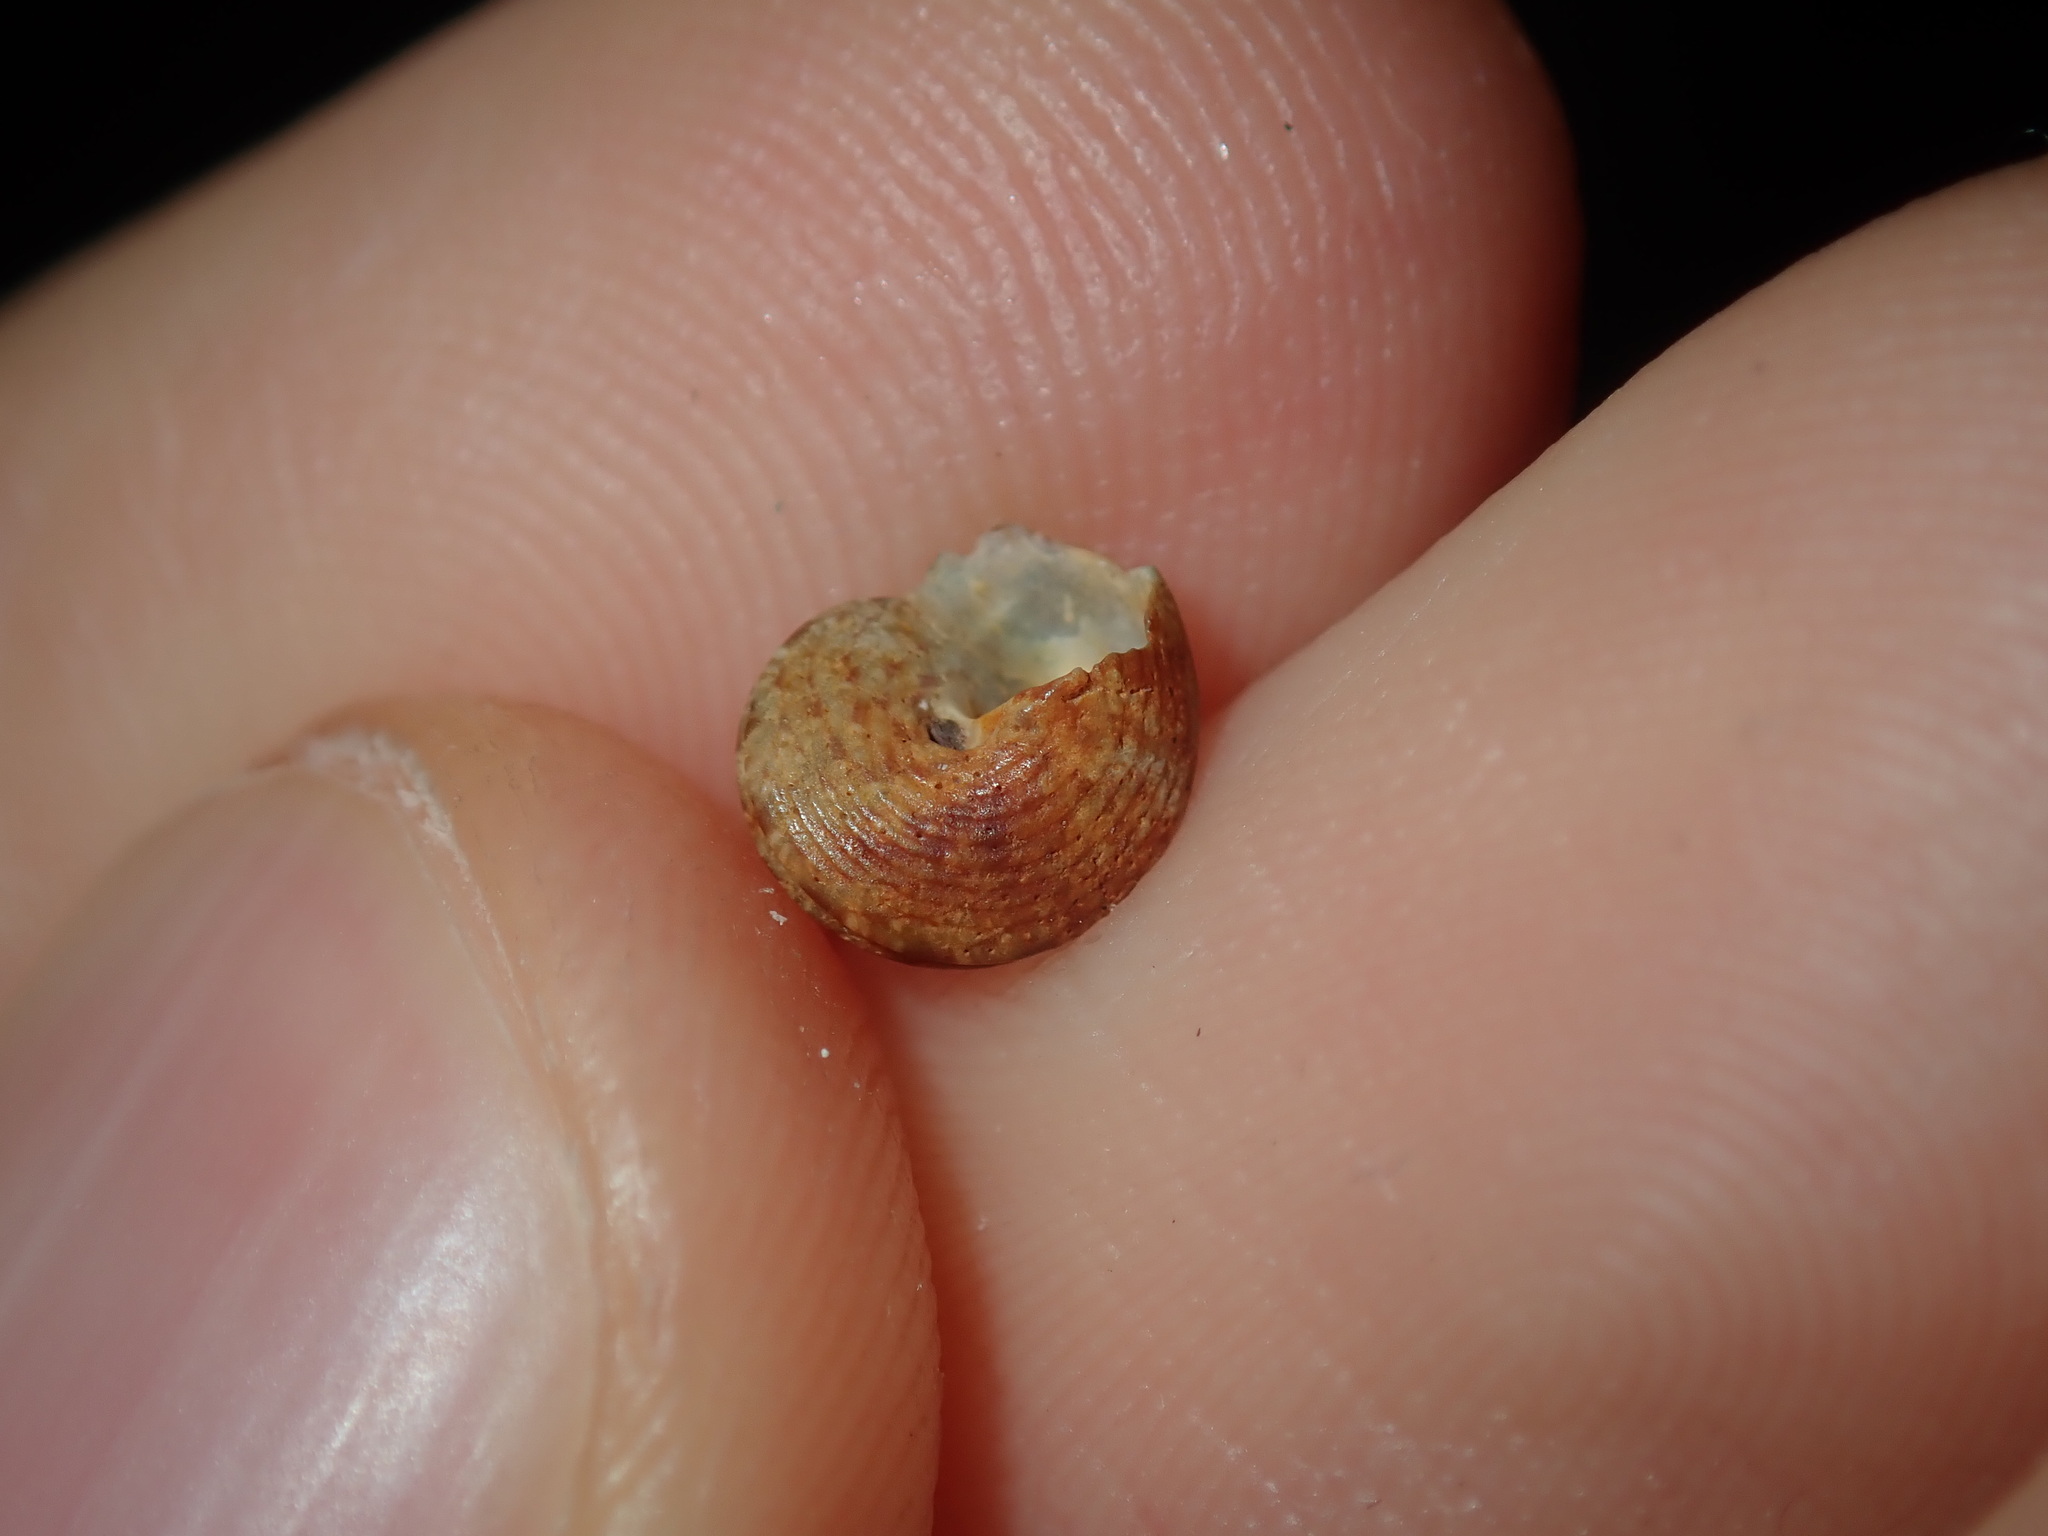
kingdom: Animalia
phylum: Mollusca
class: Gastropoda
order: Trochida
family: Trochidae
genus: Eurytrochus
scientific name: Eurytrochus strangei
